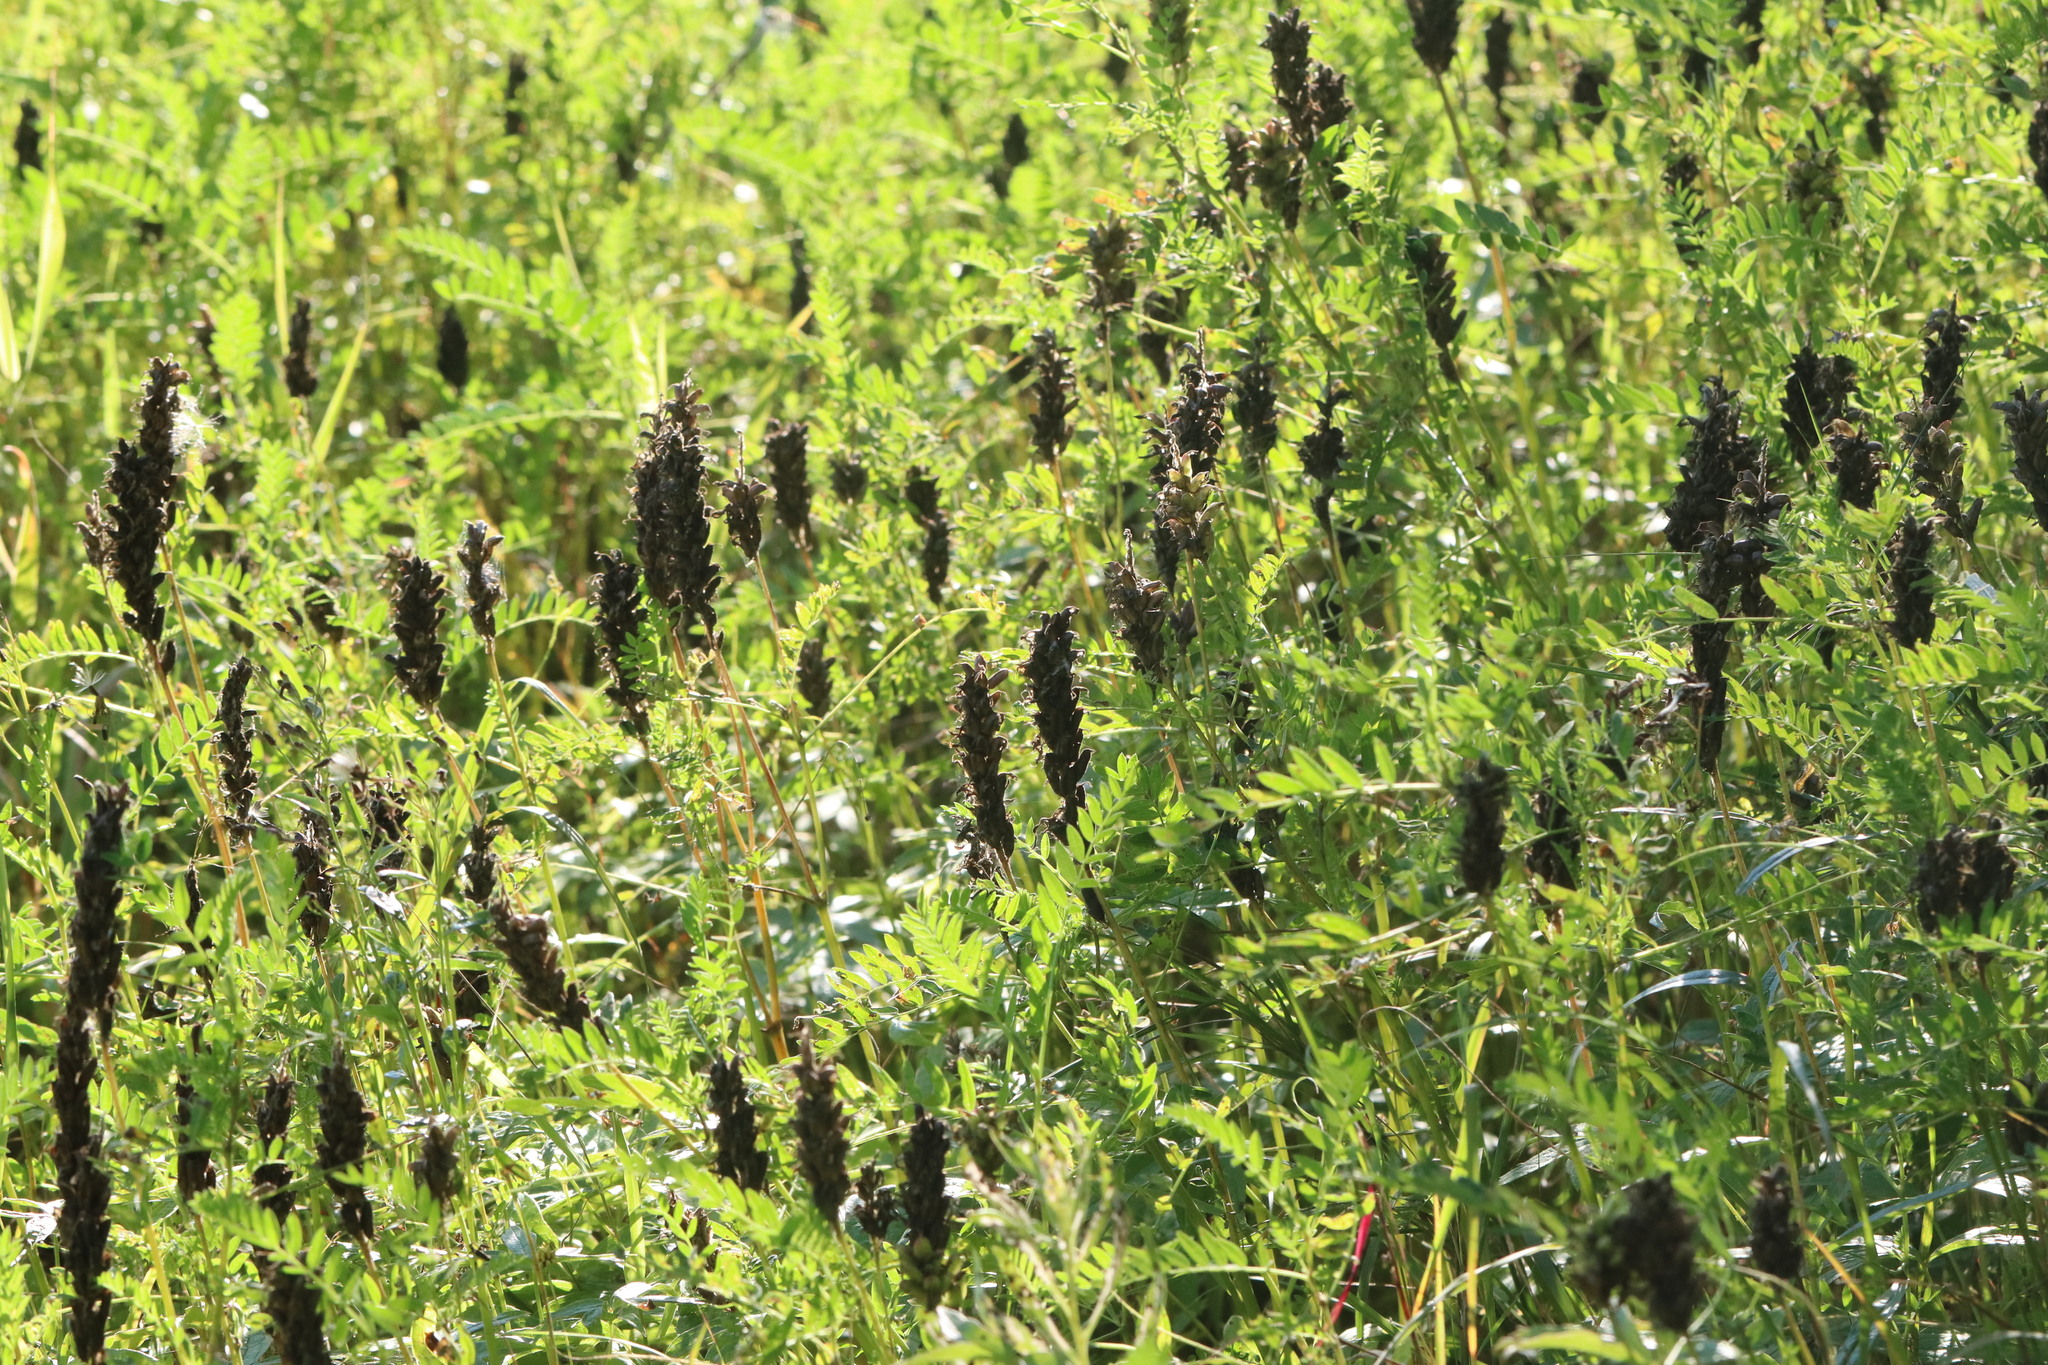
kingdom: Plantae
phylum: Tracheophyta
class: Magnoliopsida
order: Fabales
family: Fabaceae
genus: Astragalus
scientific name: Astragalus uliginosus
